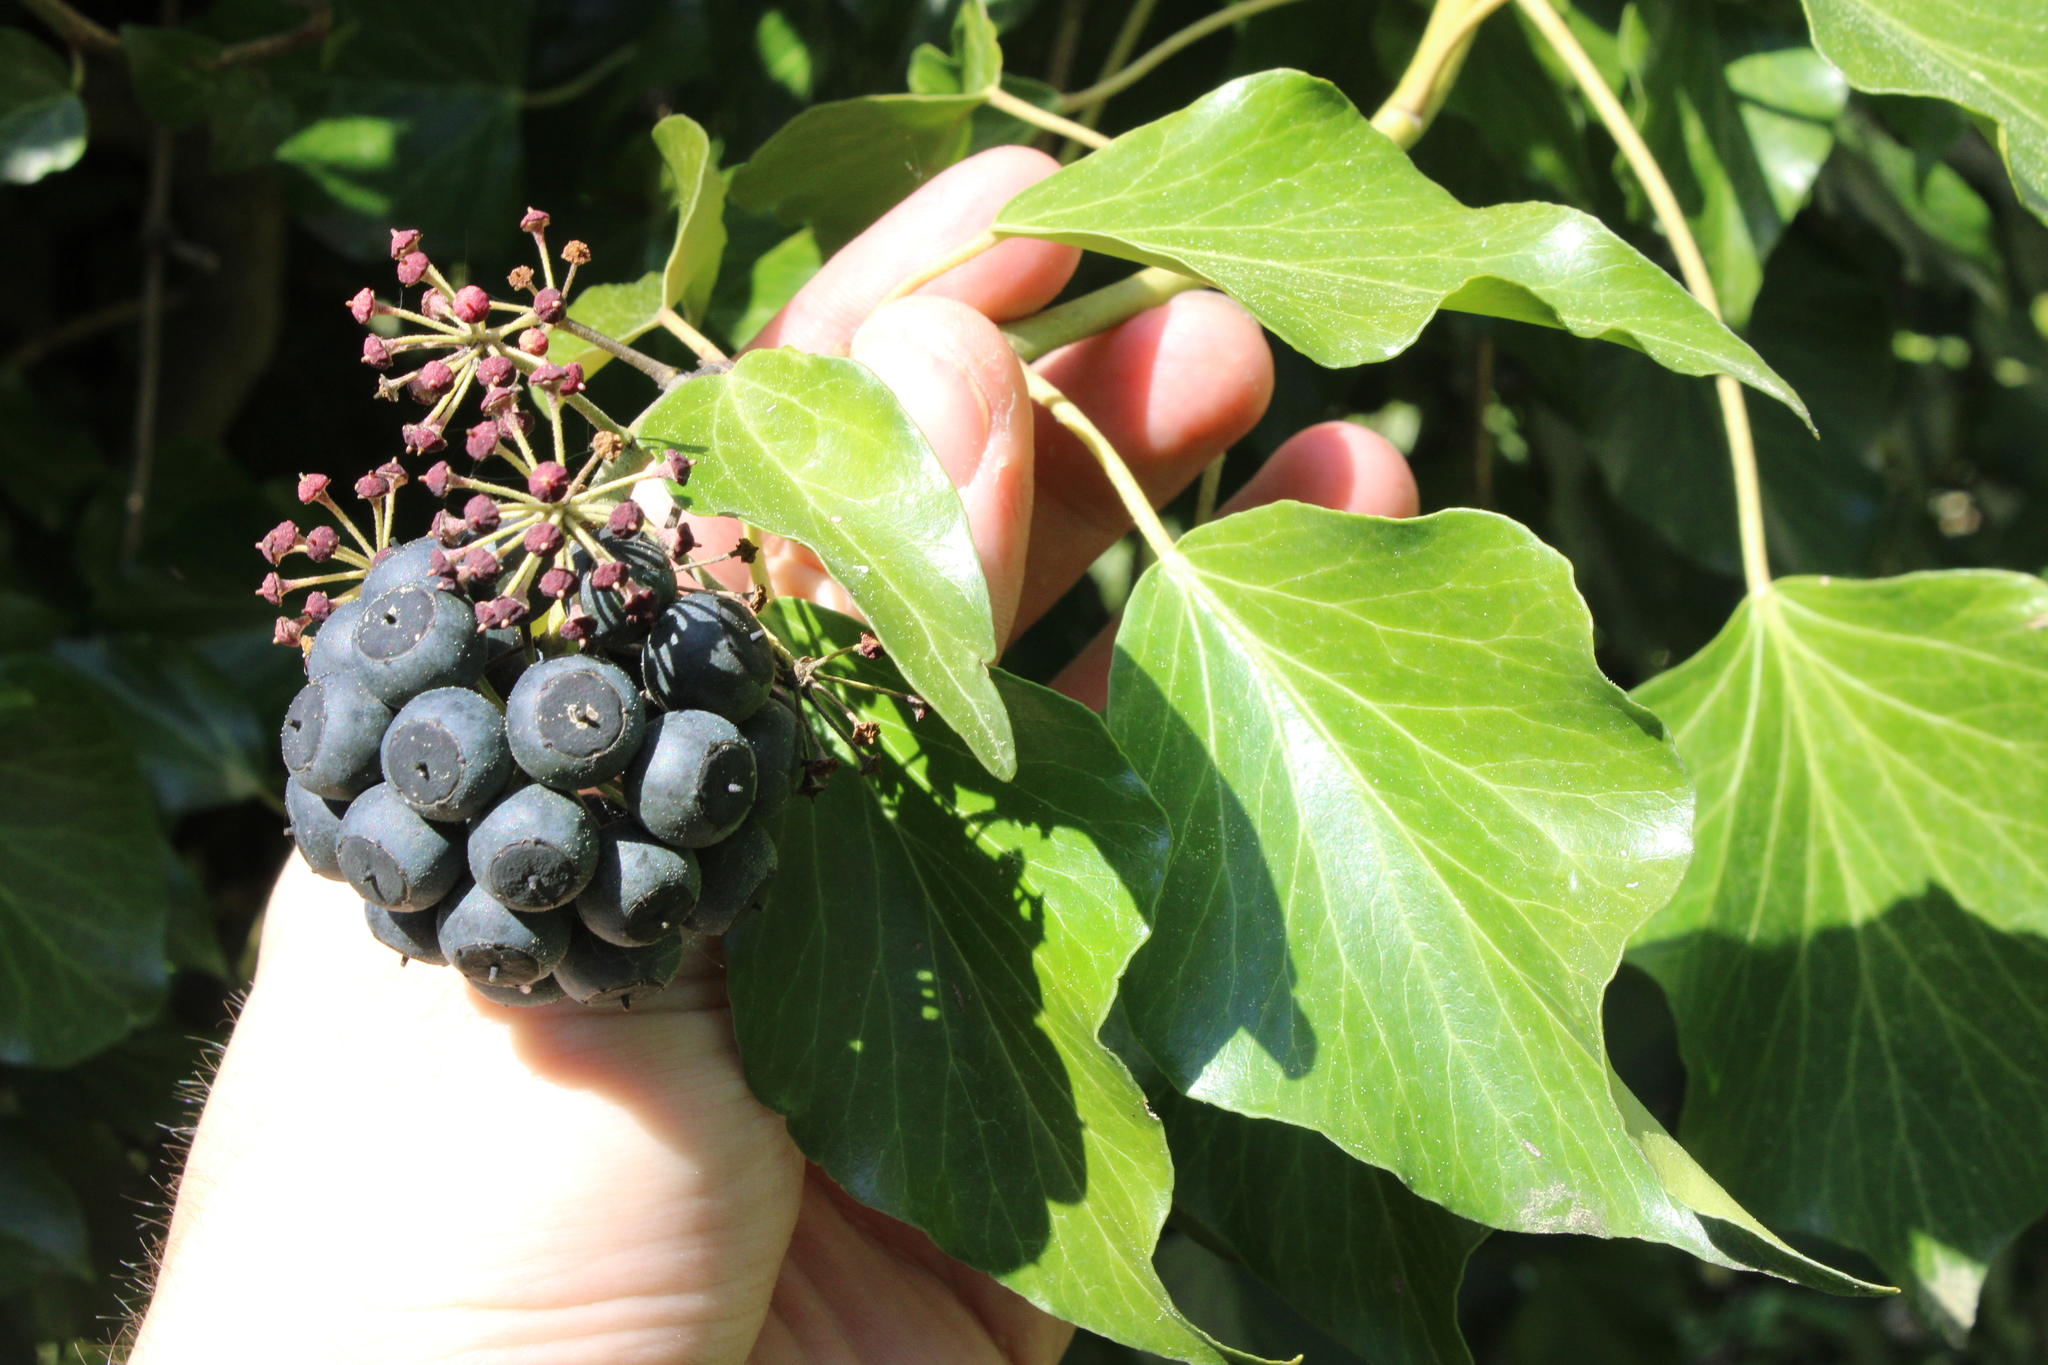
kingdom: Plantae
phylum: Tracheophyta
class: Magnoliopsida
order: Apiales
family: Araliaceae
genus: Hedera
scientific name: Hedera helix
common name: Ivy
